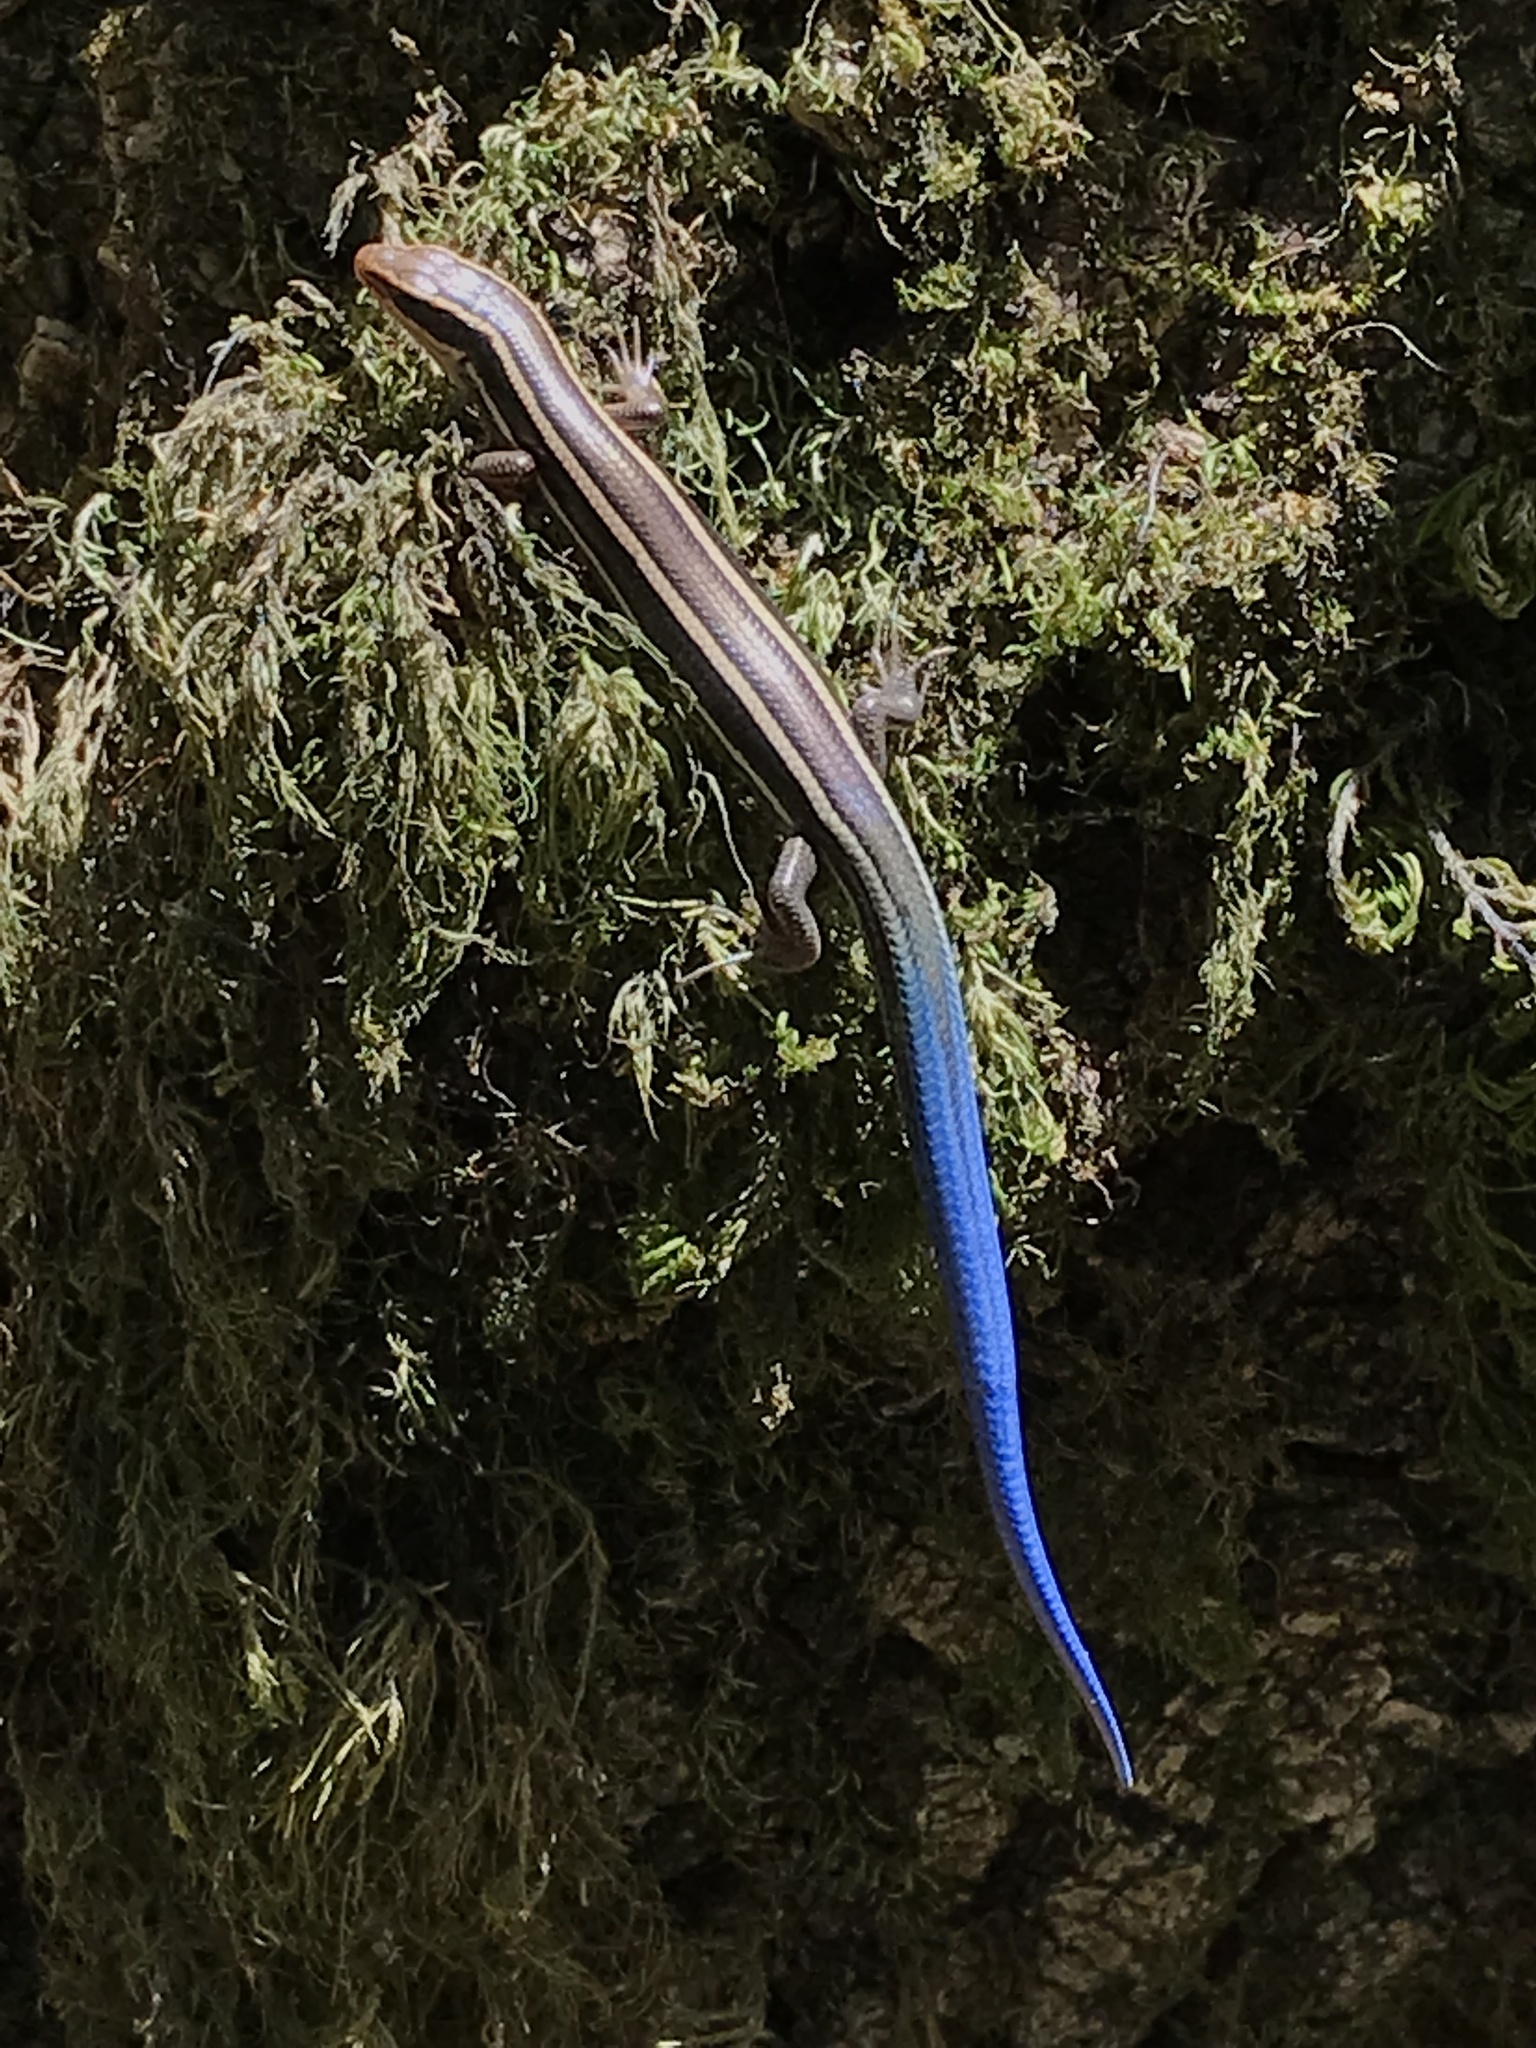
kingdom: Animalia
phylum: Chordata
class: Squamata
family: Scincidae
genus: Plestiodon
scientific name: Plestiodon skiltonianus
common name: Coronado island skink [interparietalis]
